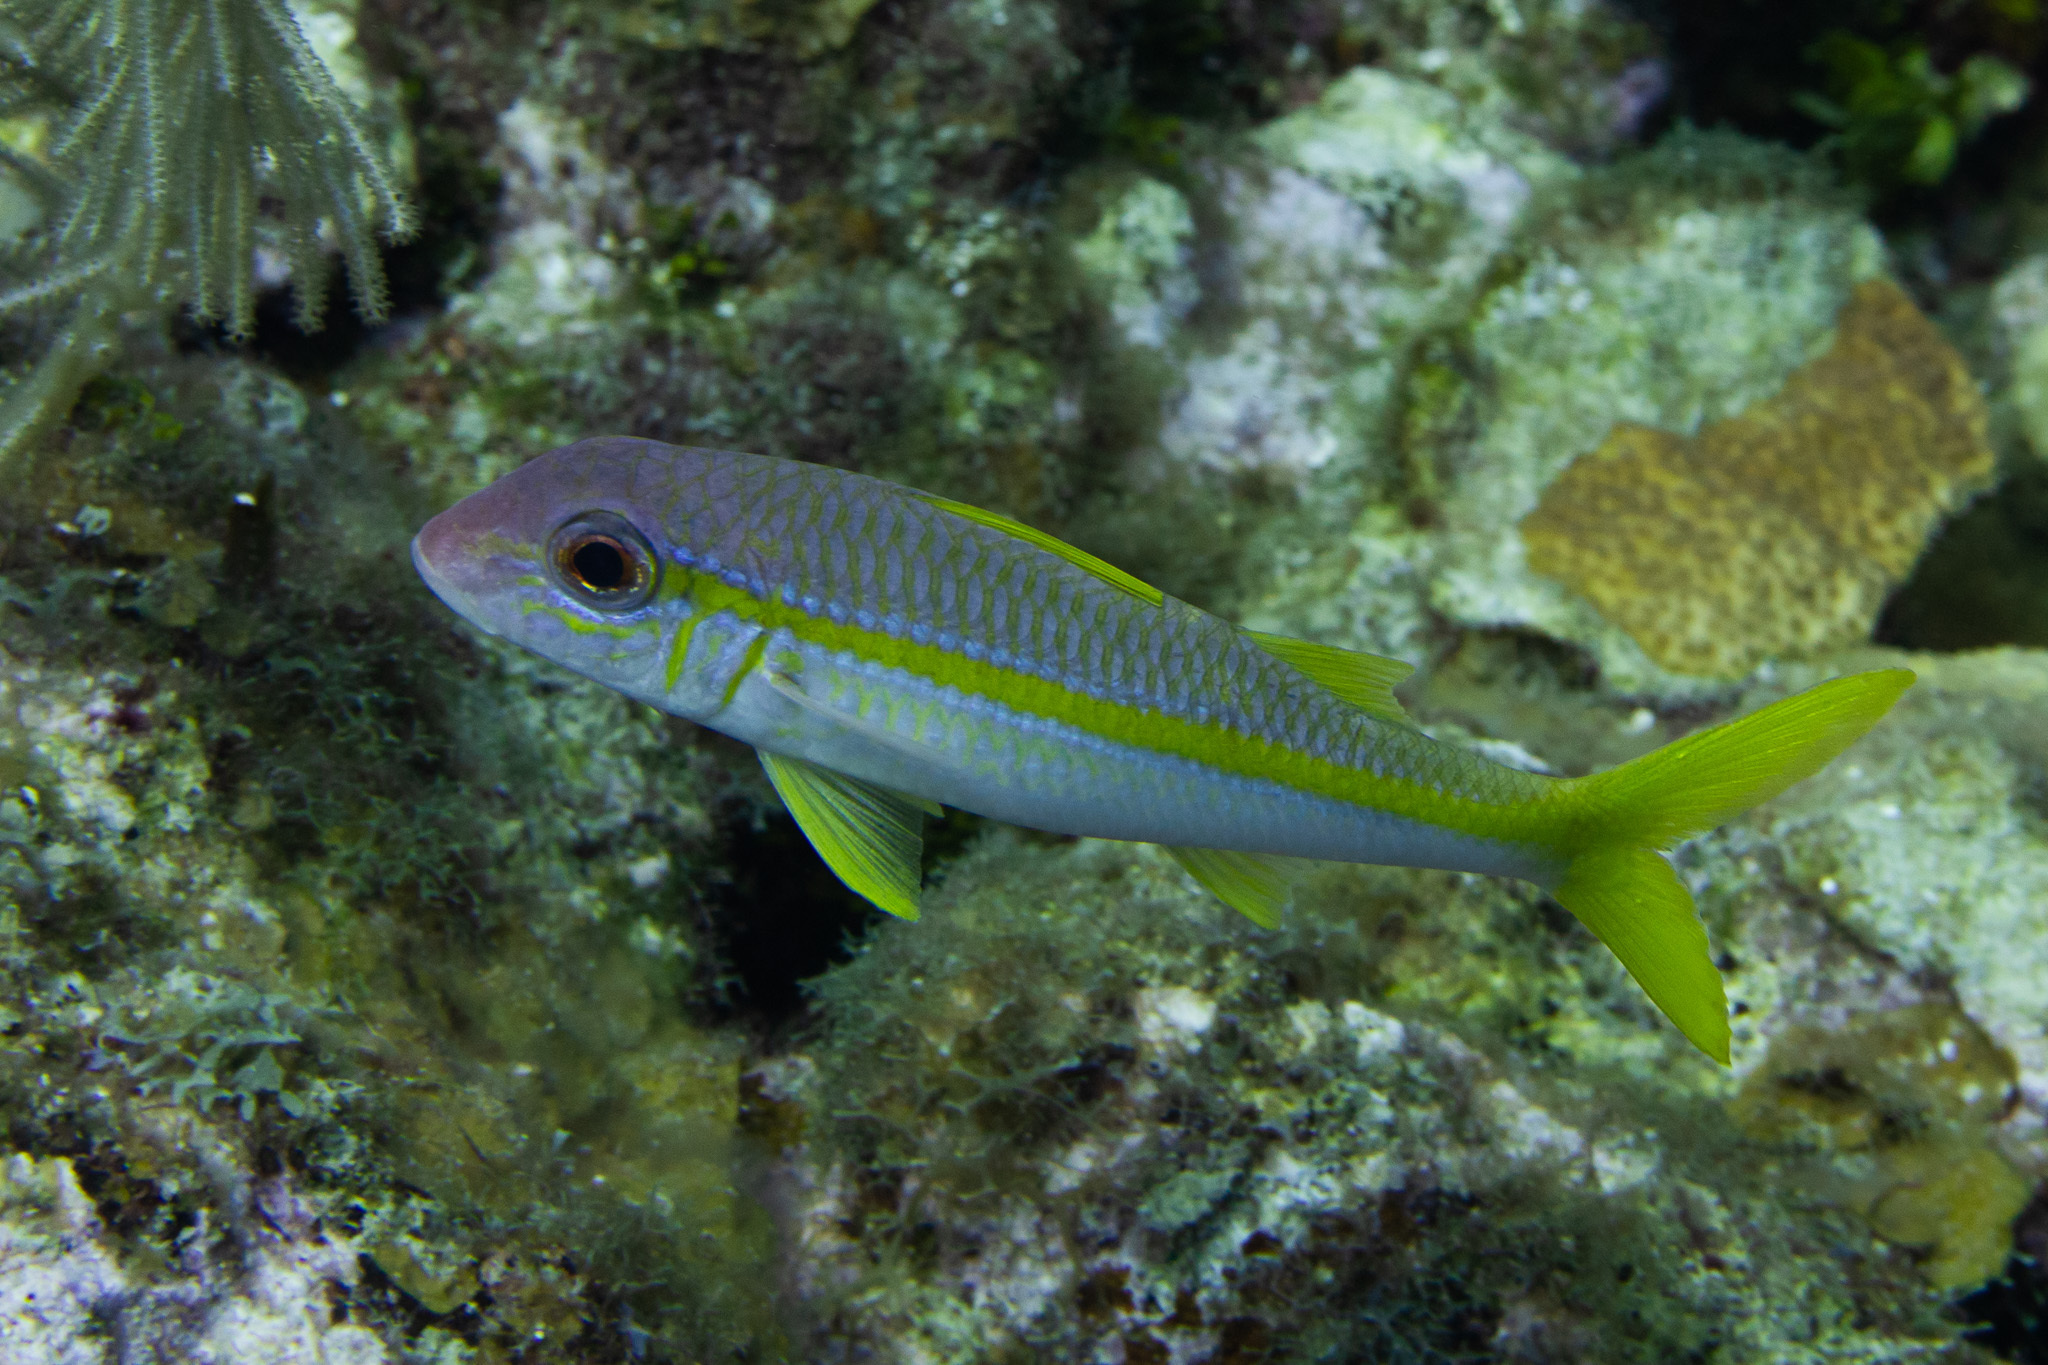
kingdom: Animalia
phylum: Chordata
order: Perciformes
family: Mullidae
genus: Mulloidichthys
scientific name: Mulloidichthys martinicus
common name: Yellow goatfish
